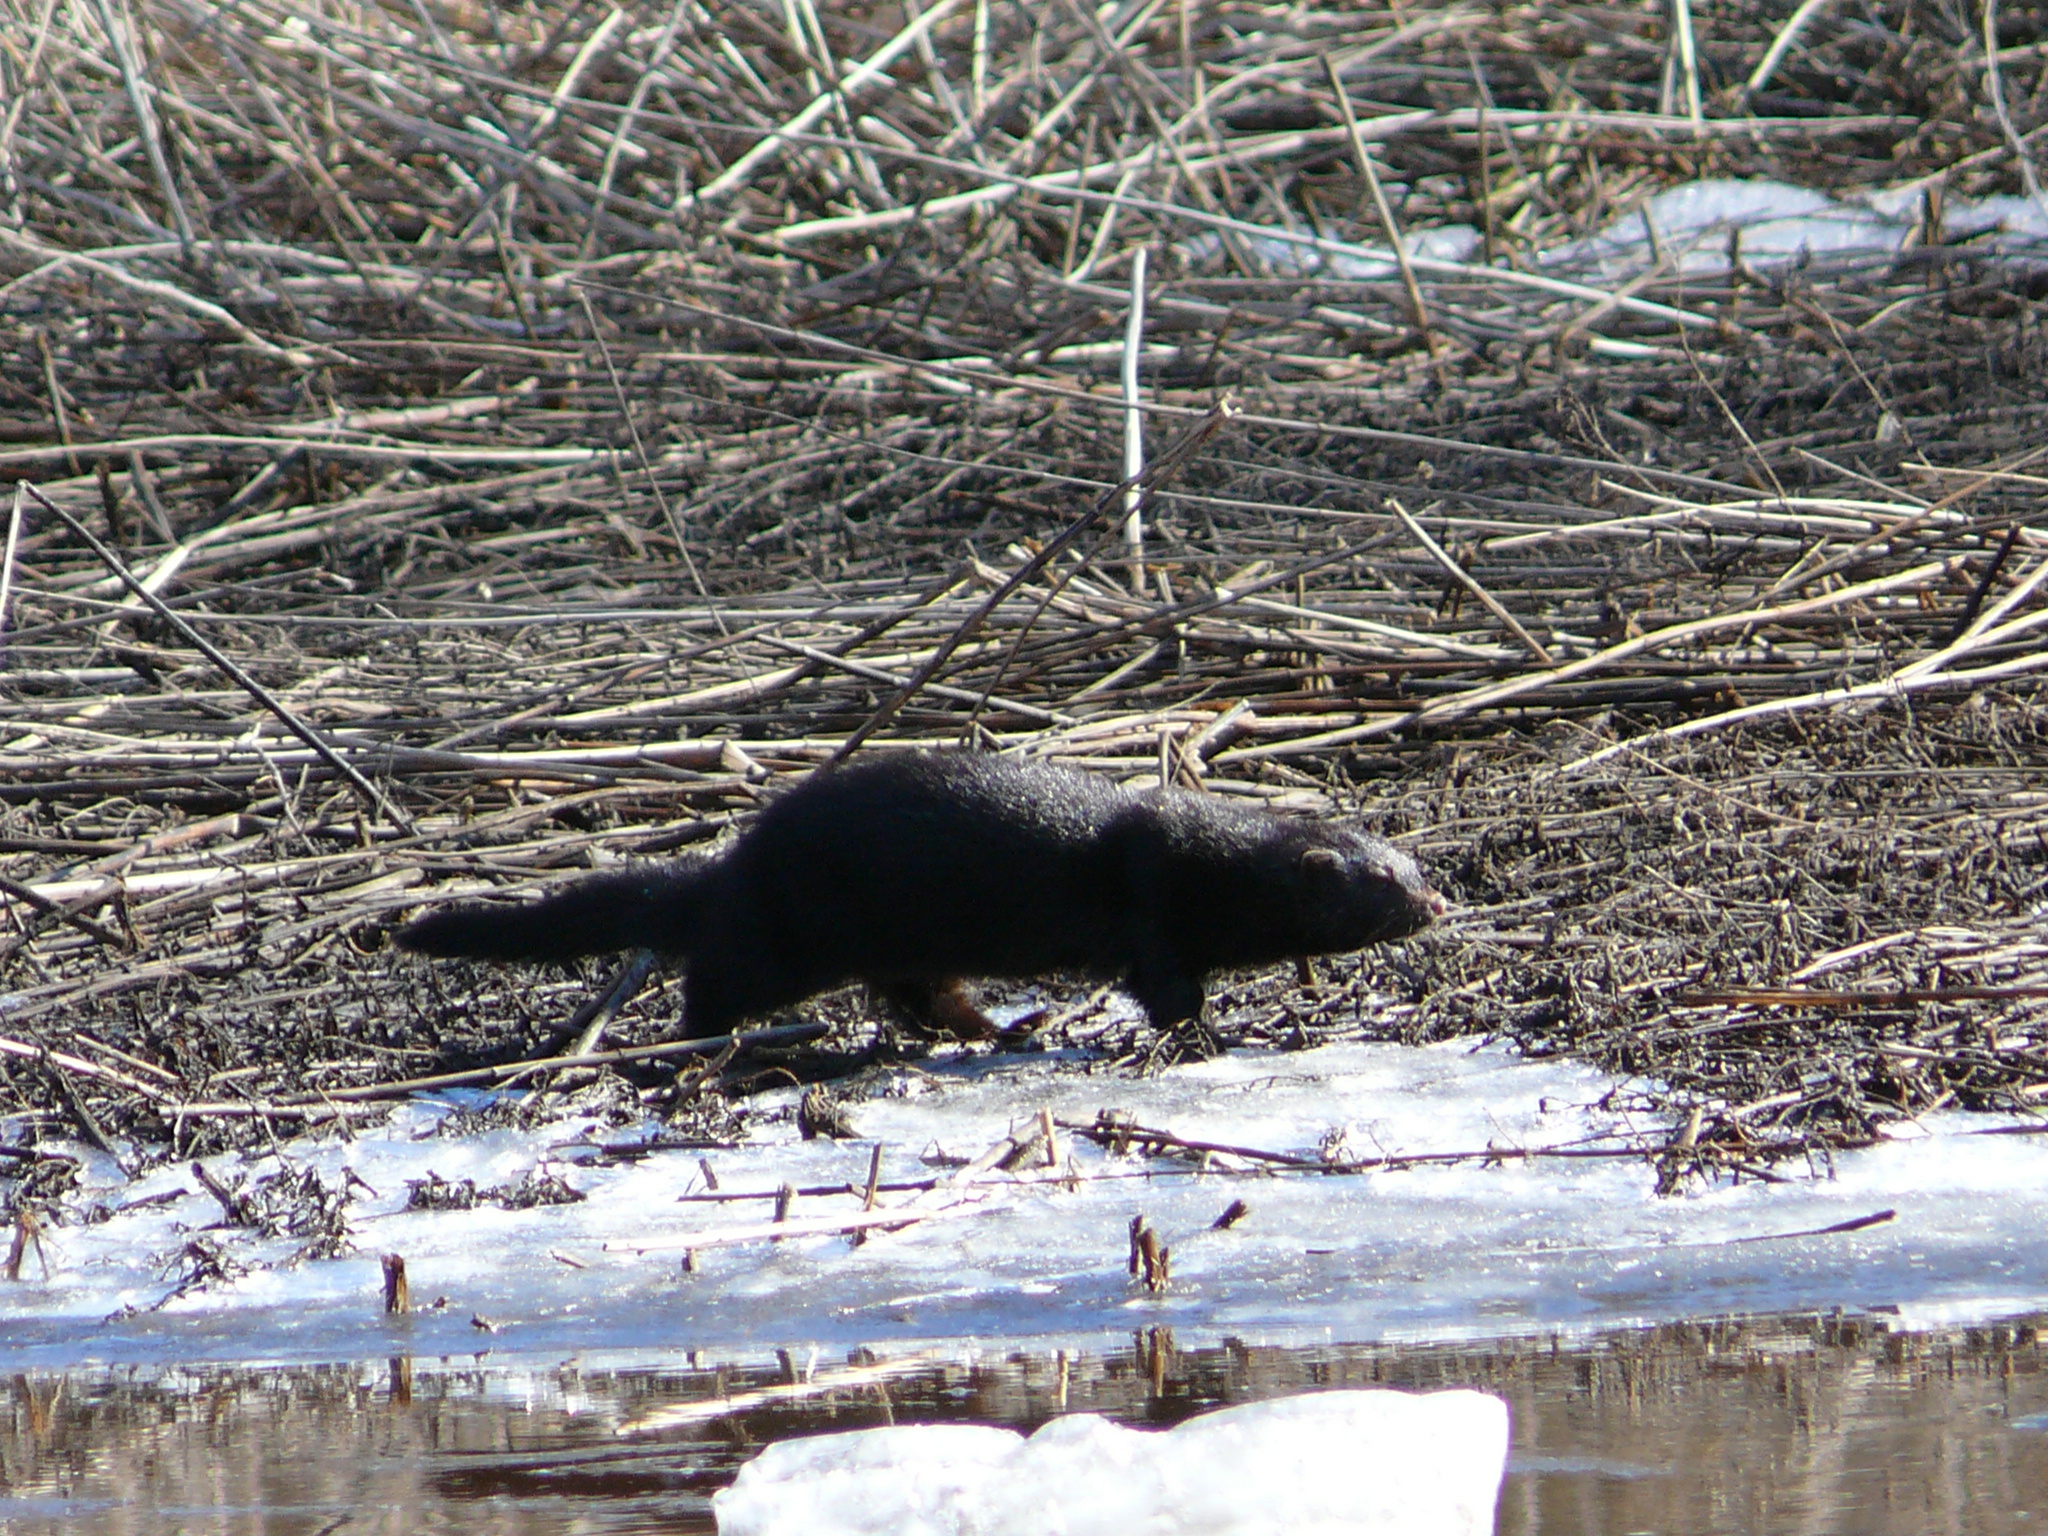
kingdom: Animalia
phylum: Chordata
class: Mammalia
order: Carnivora
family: Mustelidae
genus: Mustela
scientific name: Mustela
